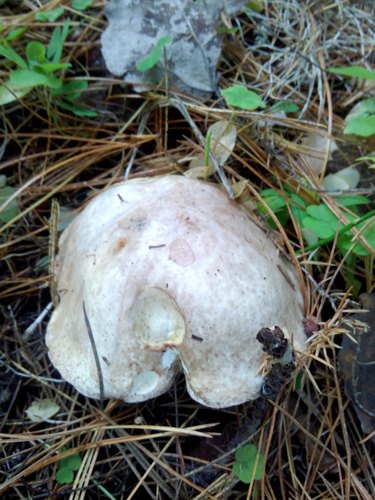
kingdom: Fungi
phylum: Basidiomycota
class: Agaricomycetes
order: Boletales
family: Suillaceae
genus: Suillus
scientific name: Suillus placidus
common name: Slippery white bolete
